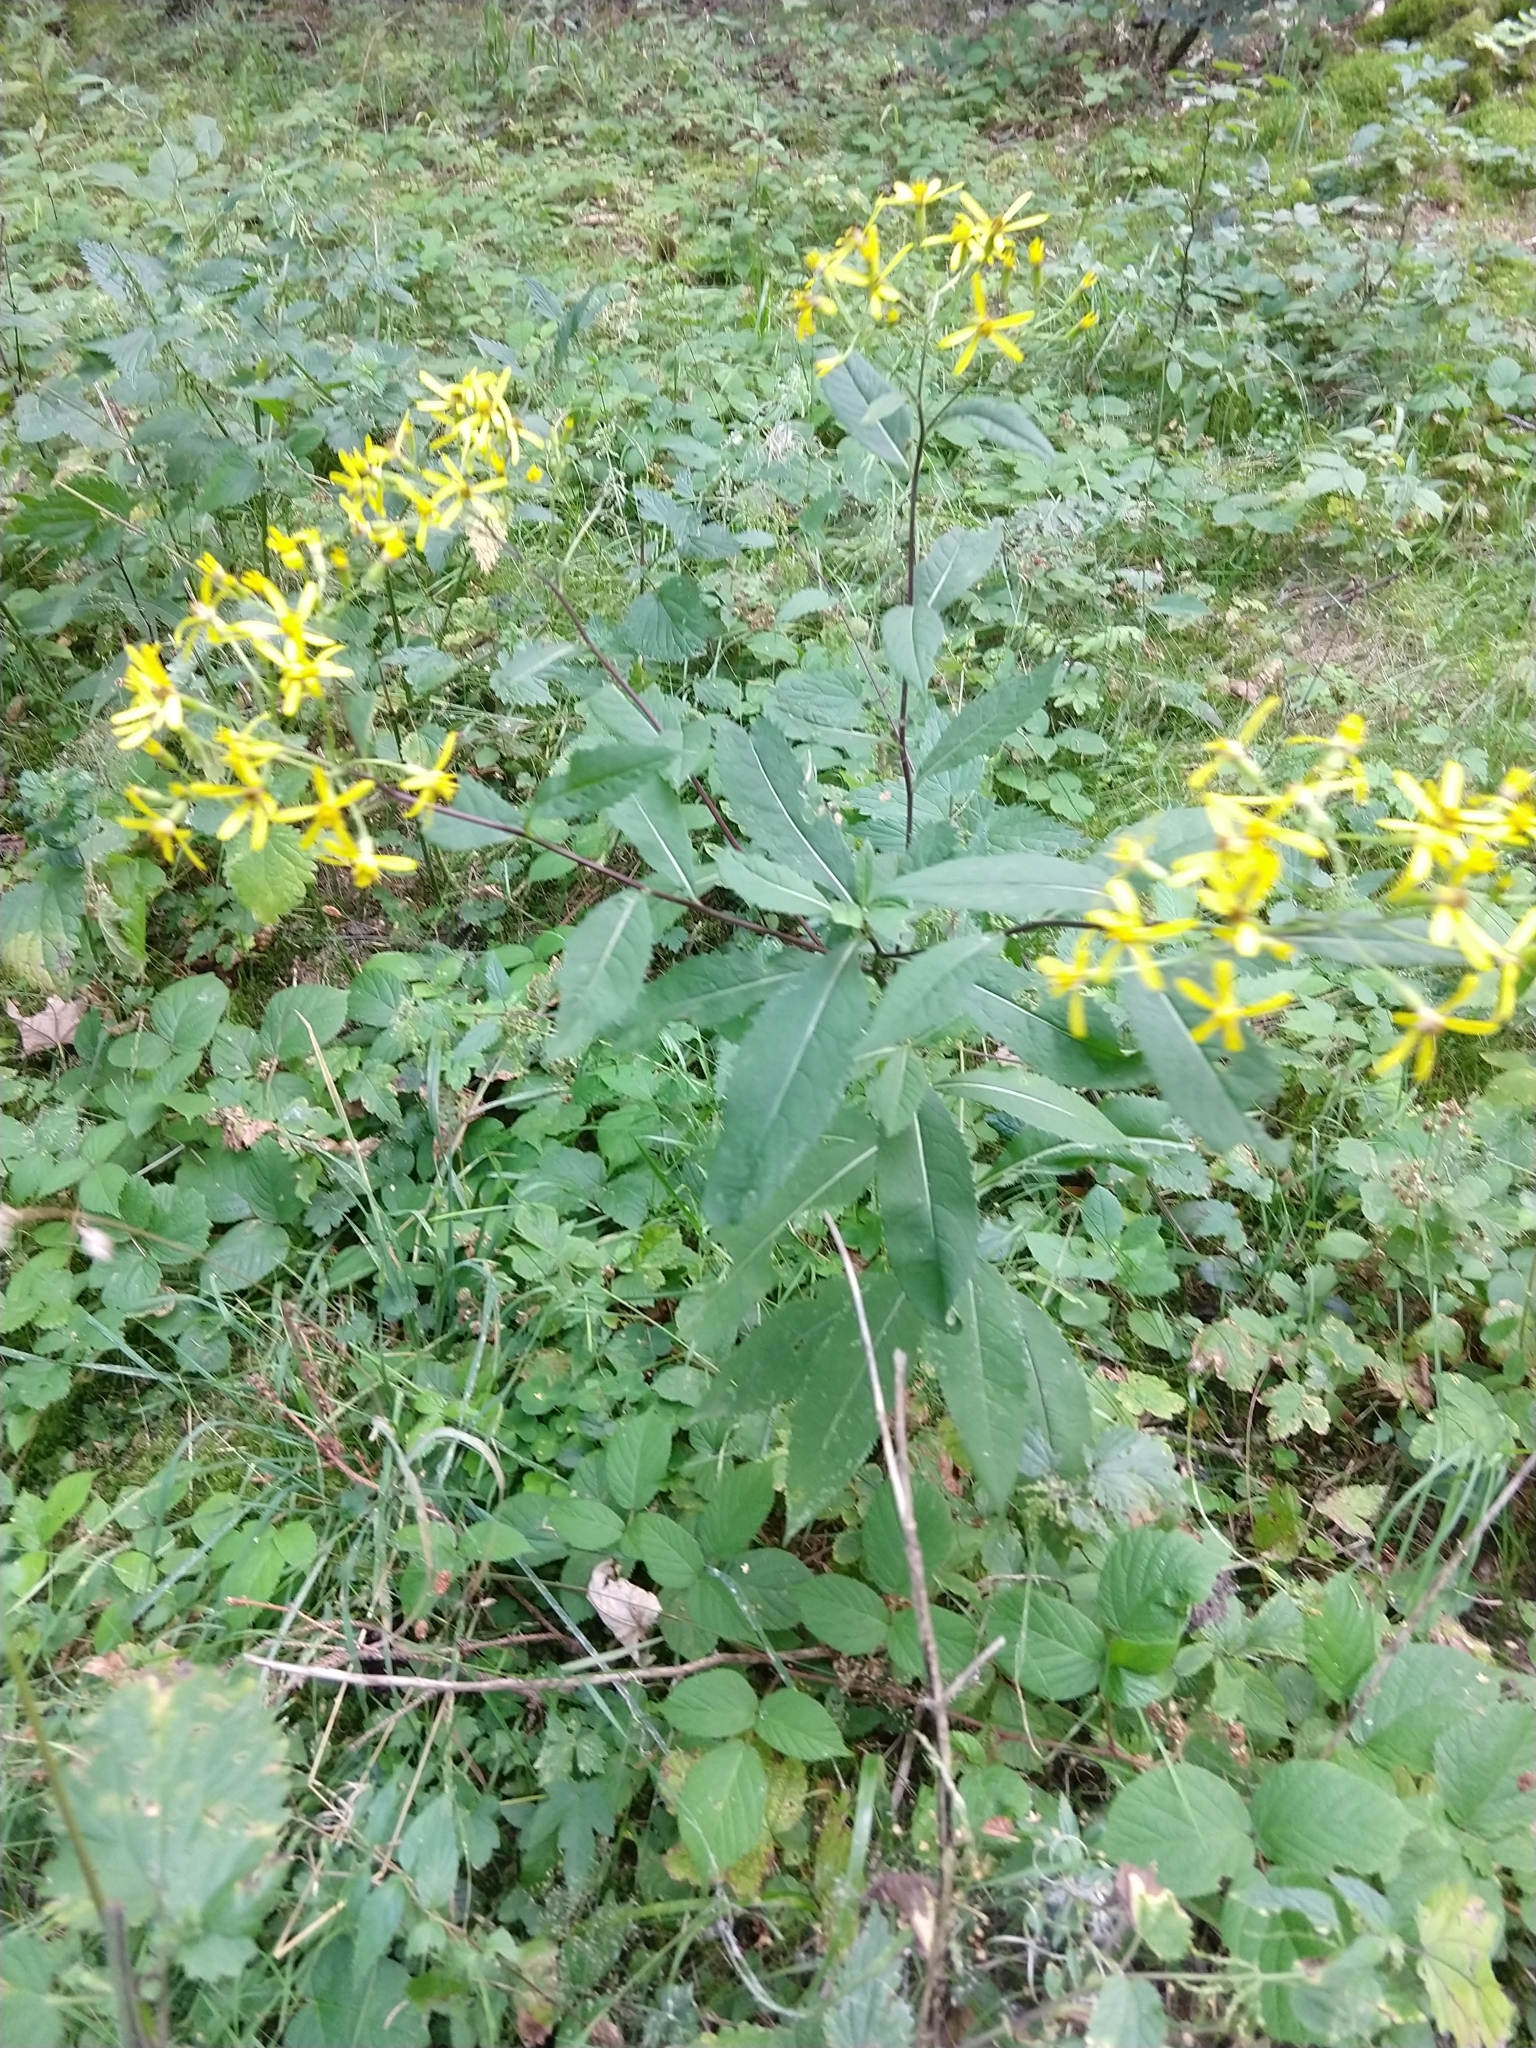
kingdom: Plantae
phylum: Tracheophyta
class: Magnoliopsida
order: Asterales
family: Asteraceae
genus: Senecio
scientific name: Senecio ovatus
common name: Wood ragwort
